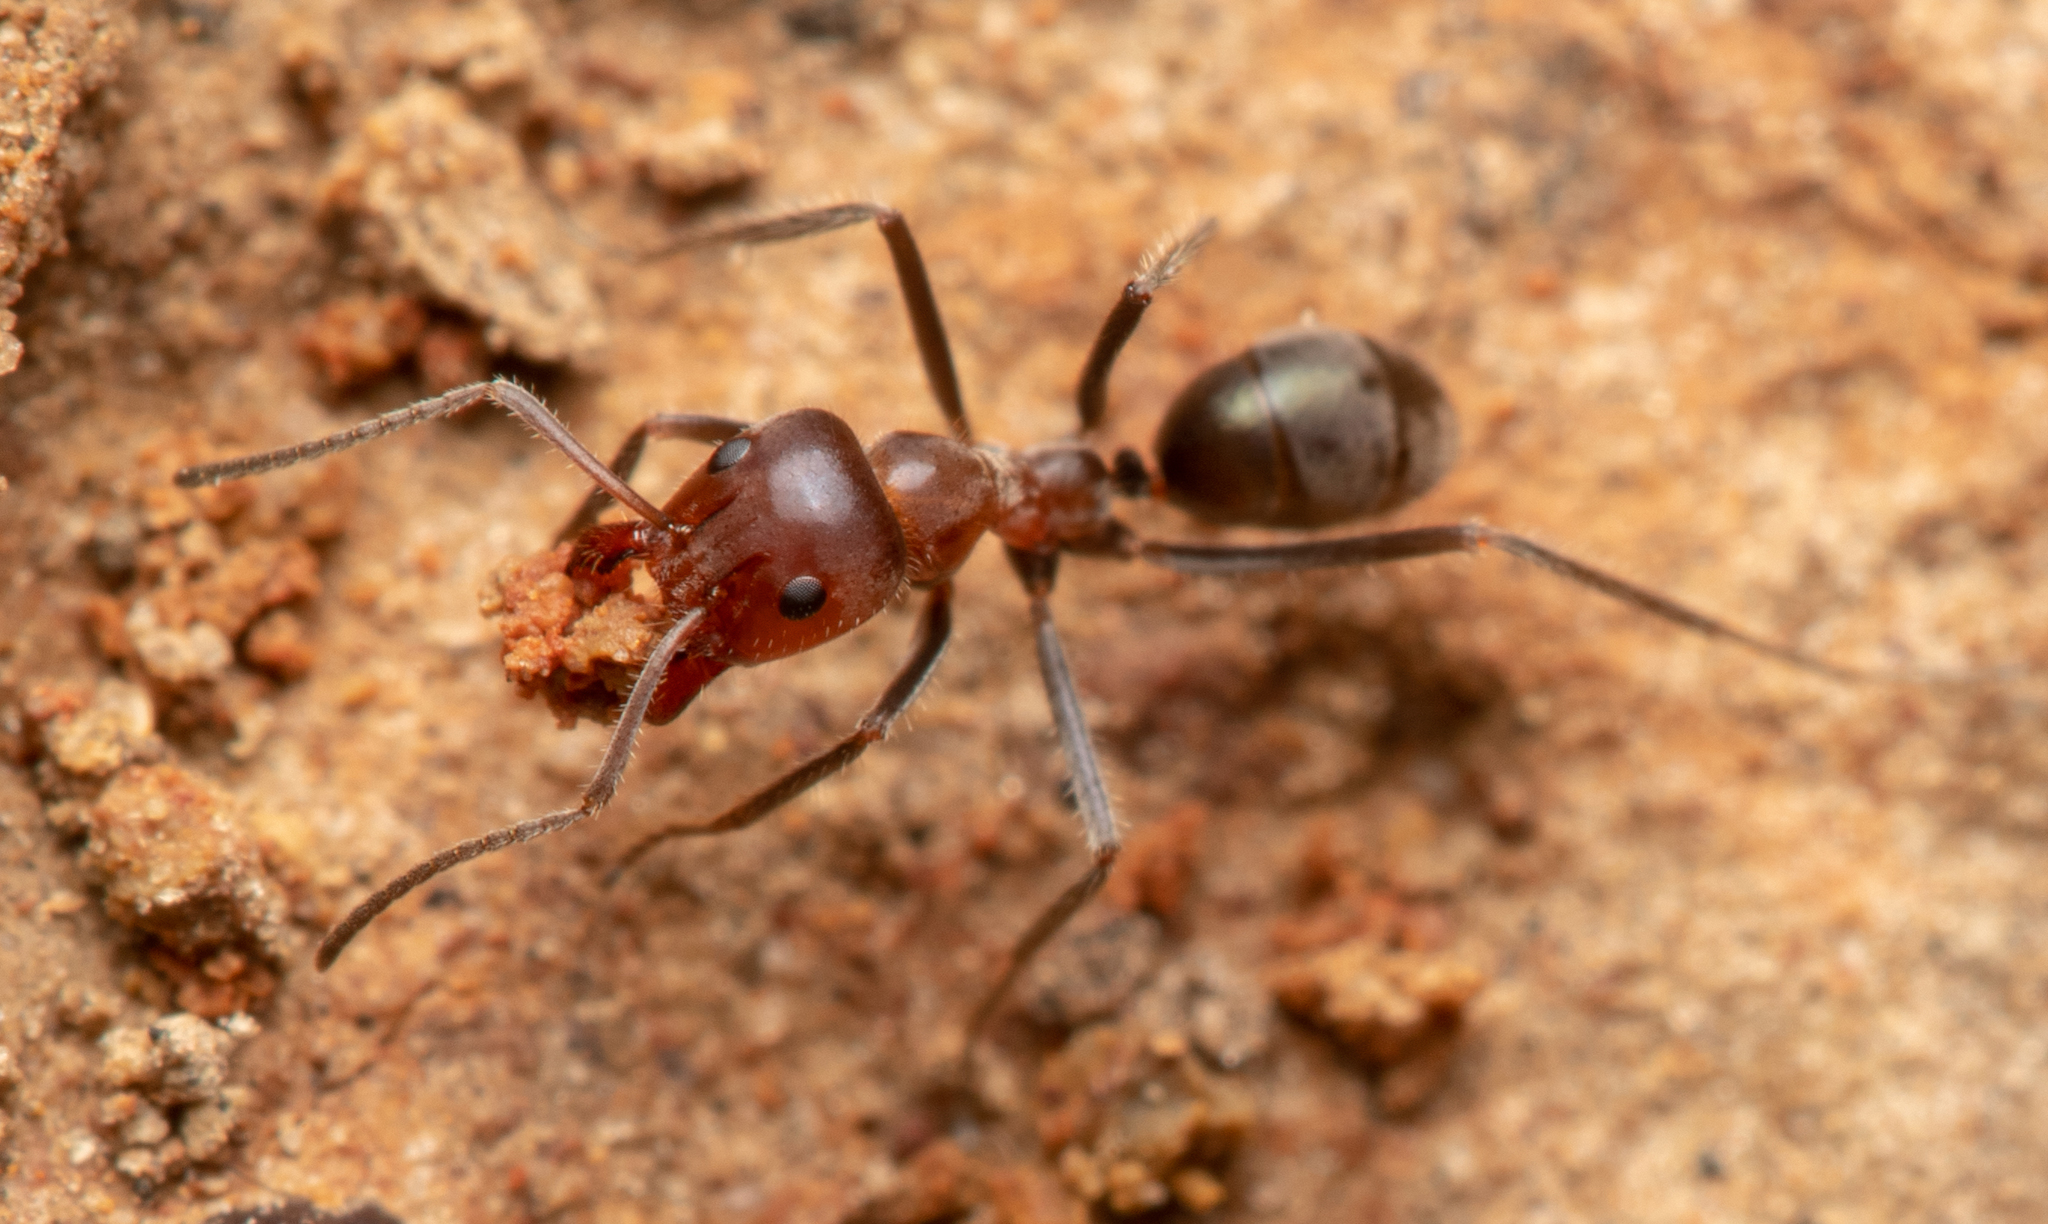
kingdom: Animalia
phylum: Arthropoda
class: Insecta
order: Hymenoptera
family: Formicidae
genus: Iridomyrmex
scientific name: Iridomyrmex discors
